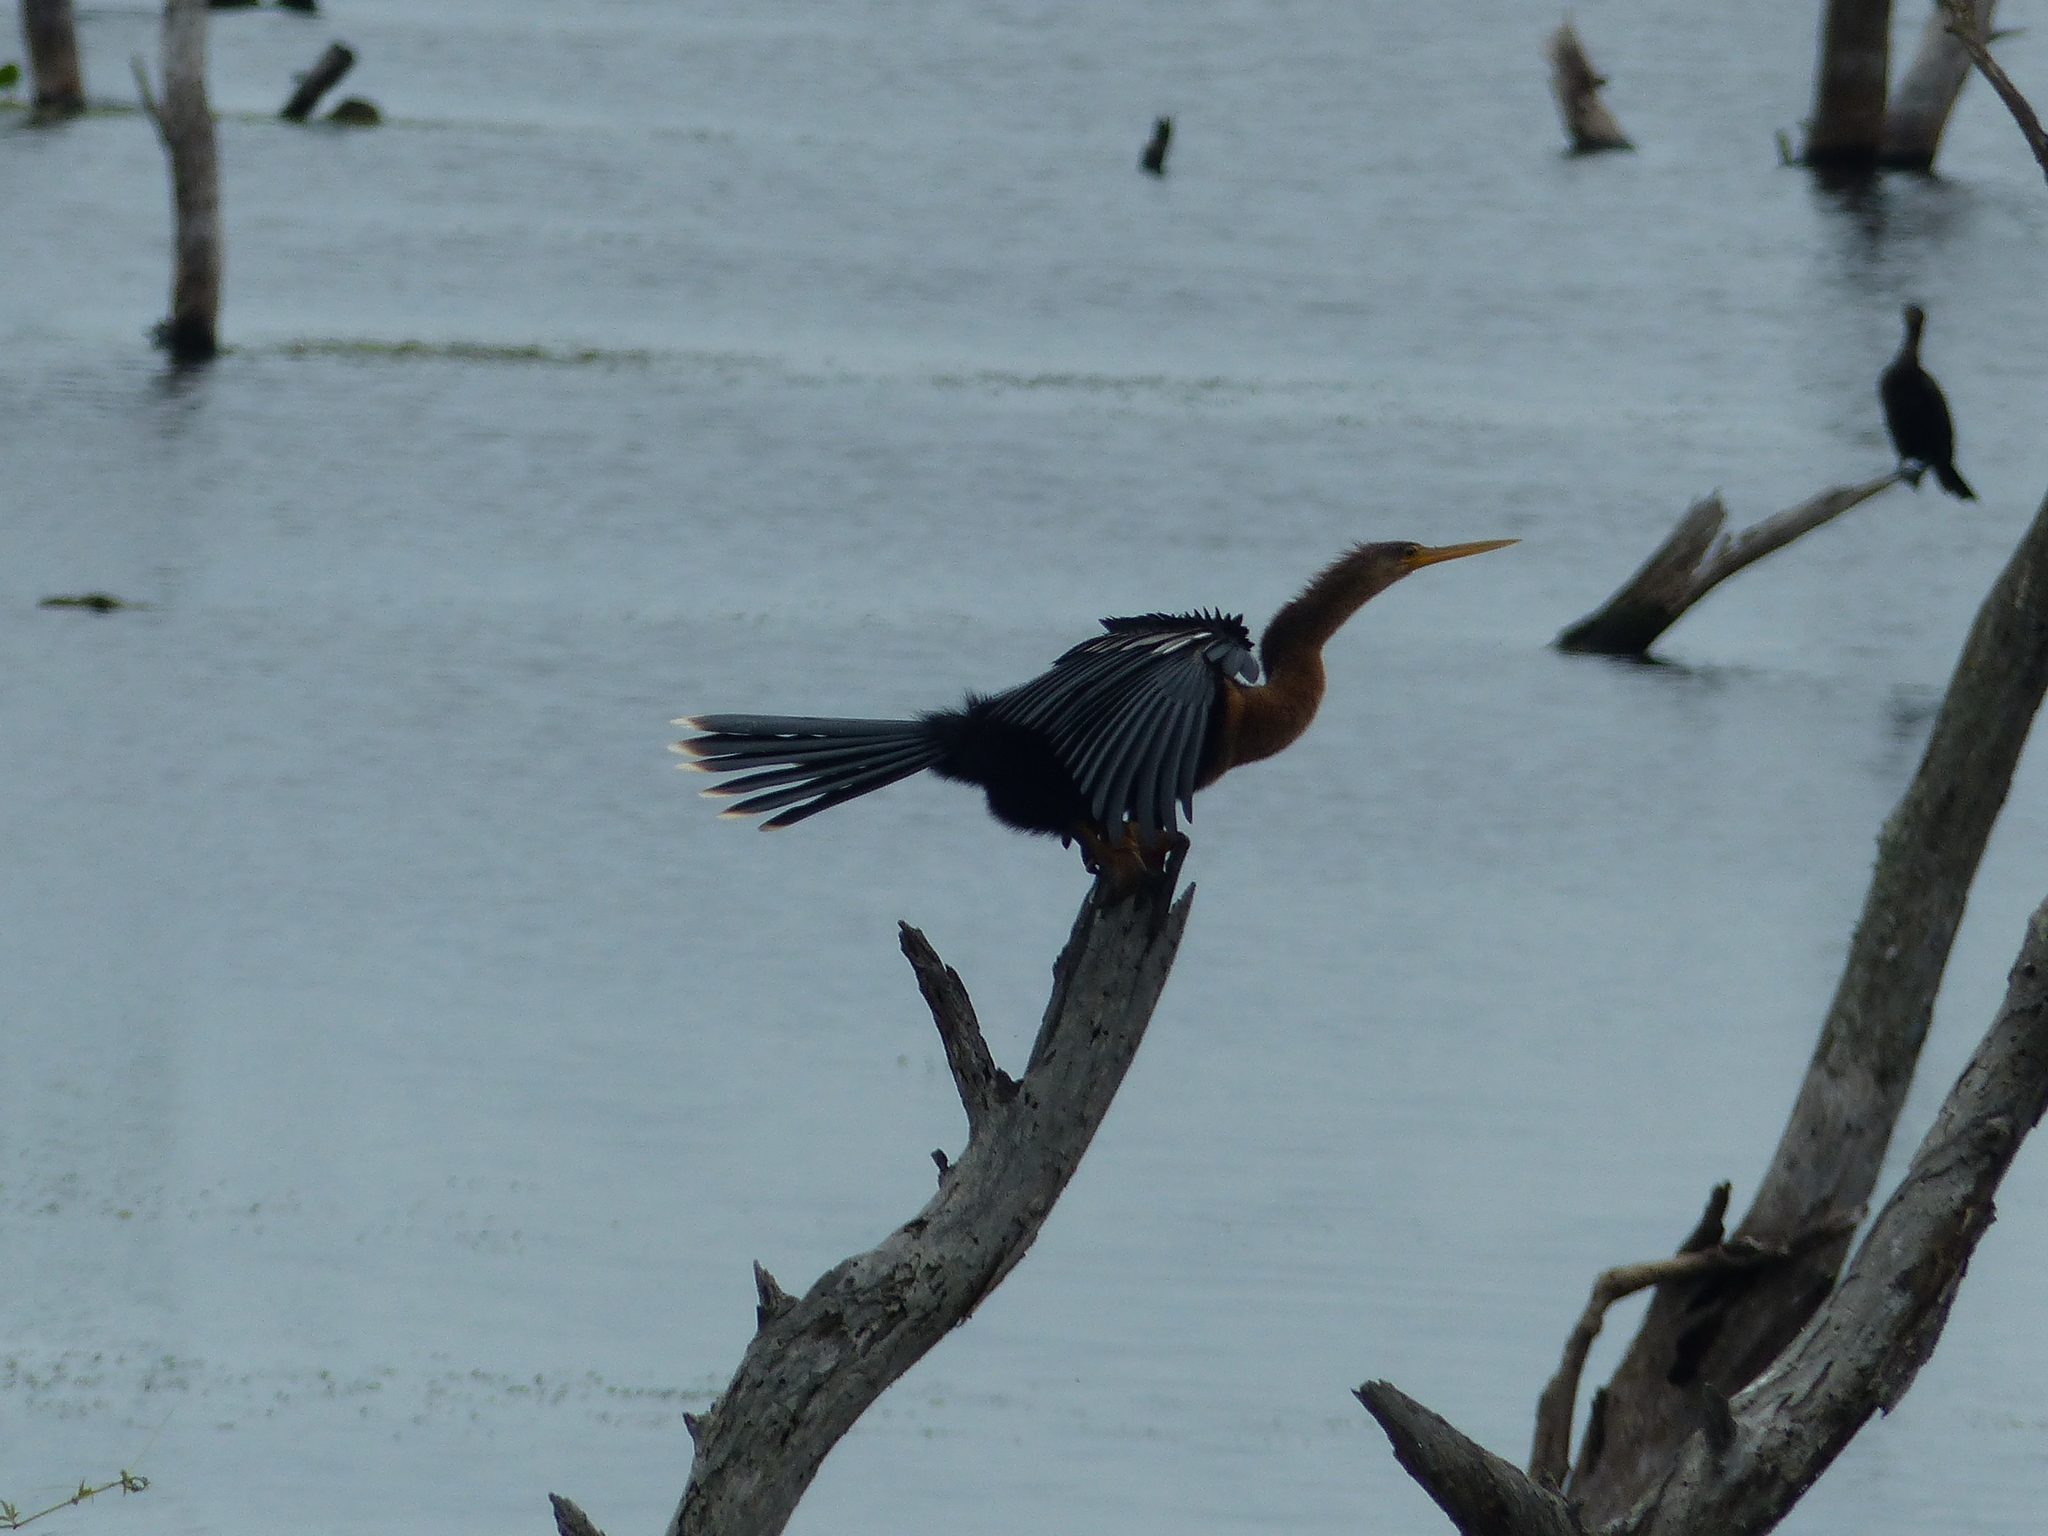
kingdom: Animalia
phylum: Chordata
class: Aves
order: Suliformes
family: Anhingidae
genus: Anhinga
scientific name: Anhinga anhinga
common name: Anhinga
